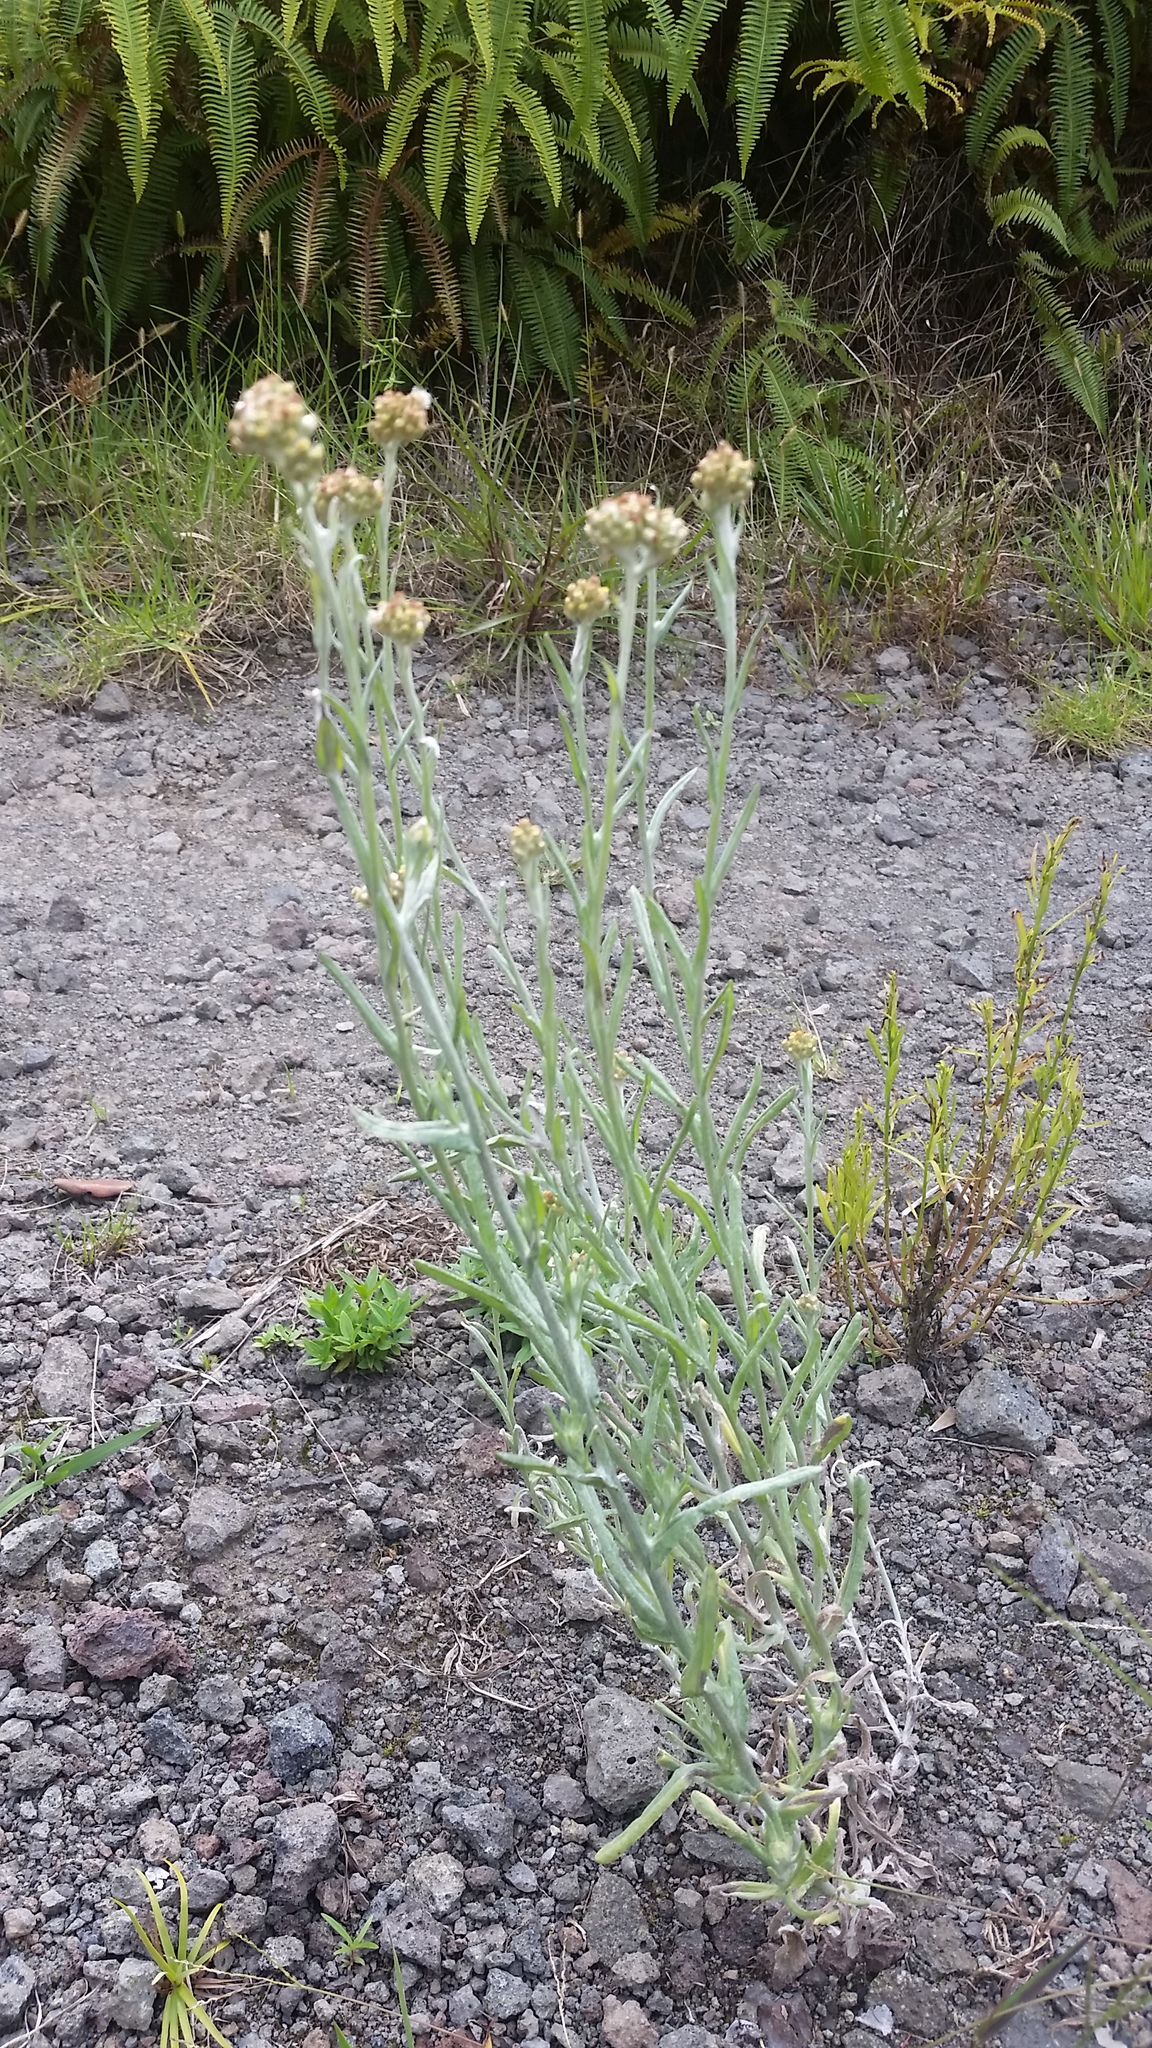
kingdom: Plantae
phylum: Tracheophyta
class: Magnoliopsida
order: Asterales
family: Asteraceae
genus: Helichrysum
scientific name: Helichrysum luteoalbum
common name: Daisy
